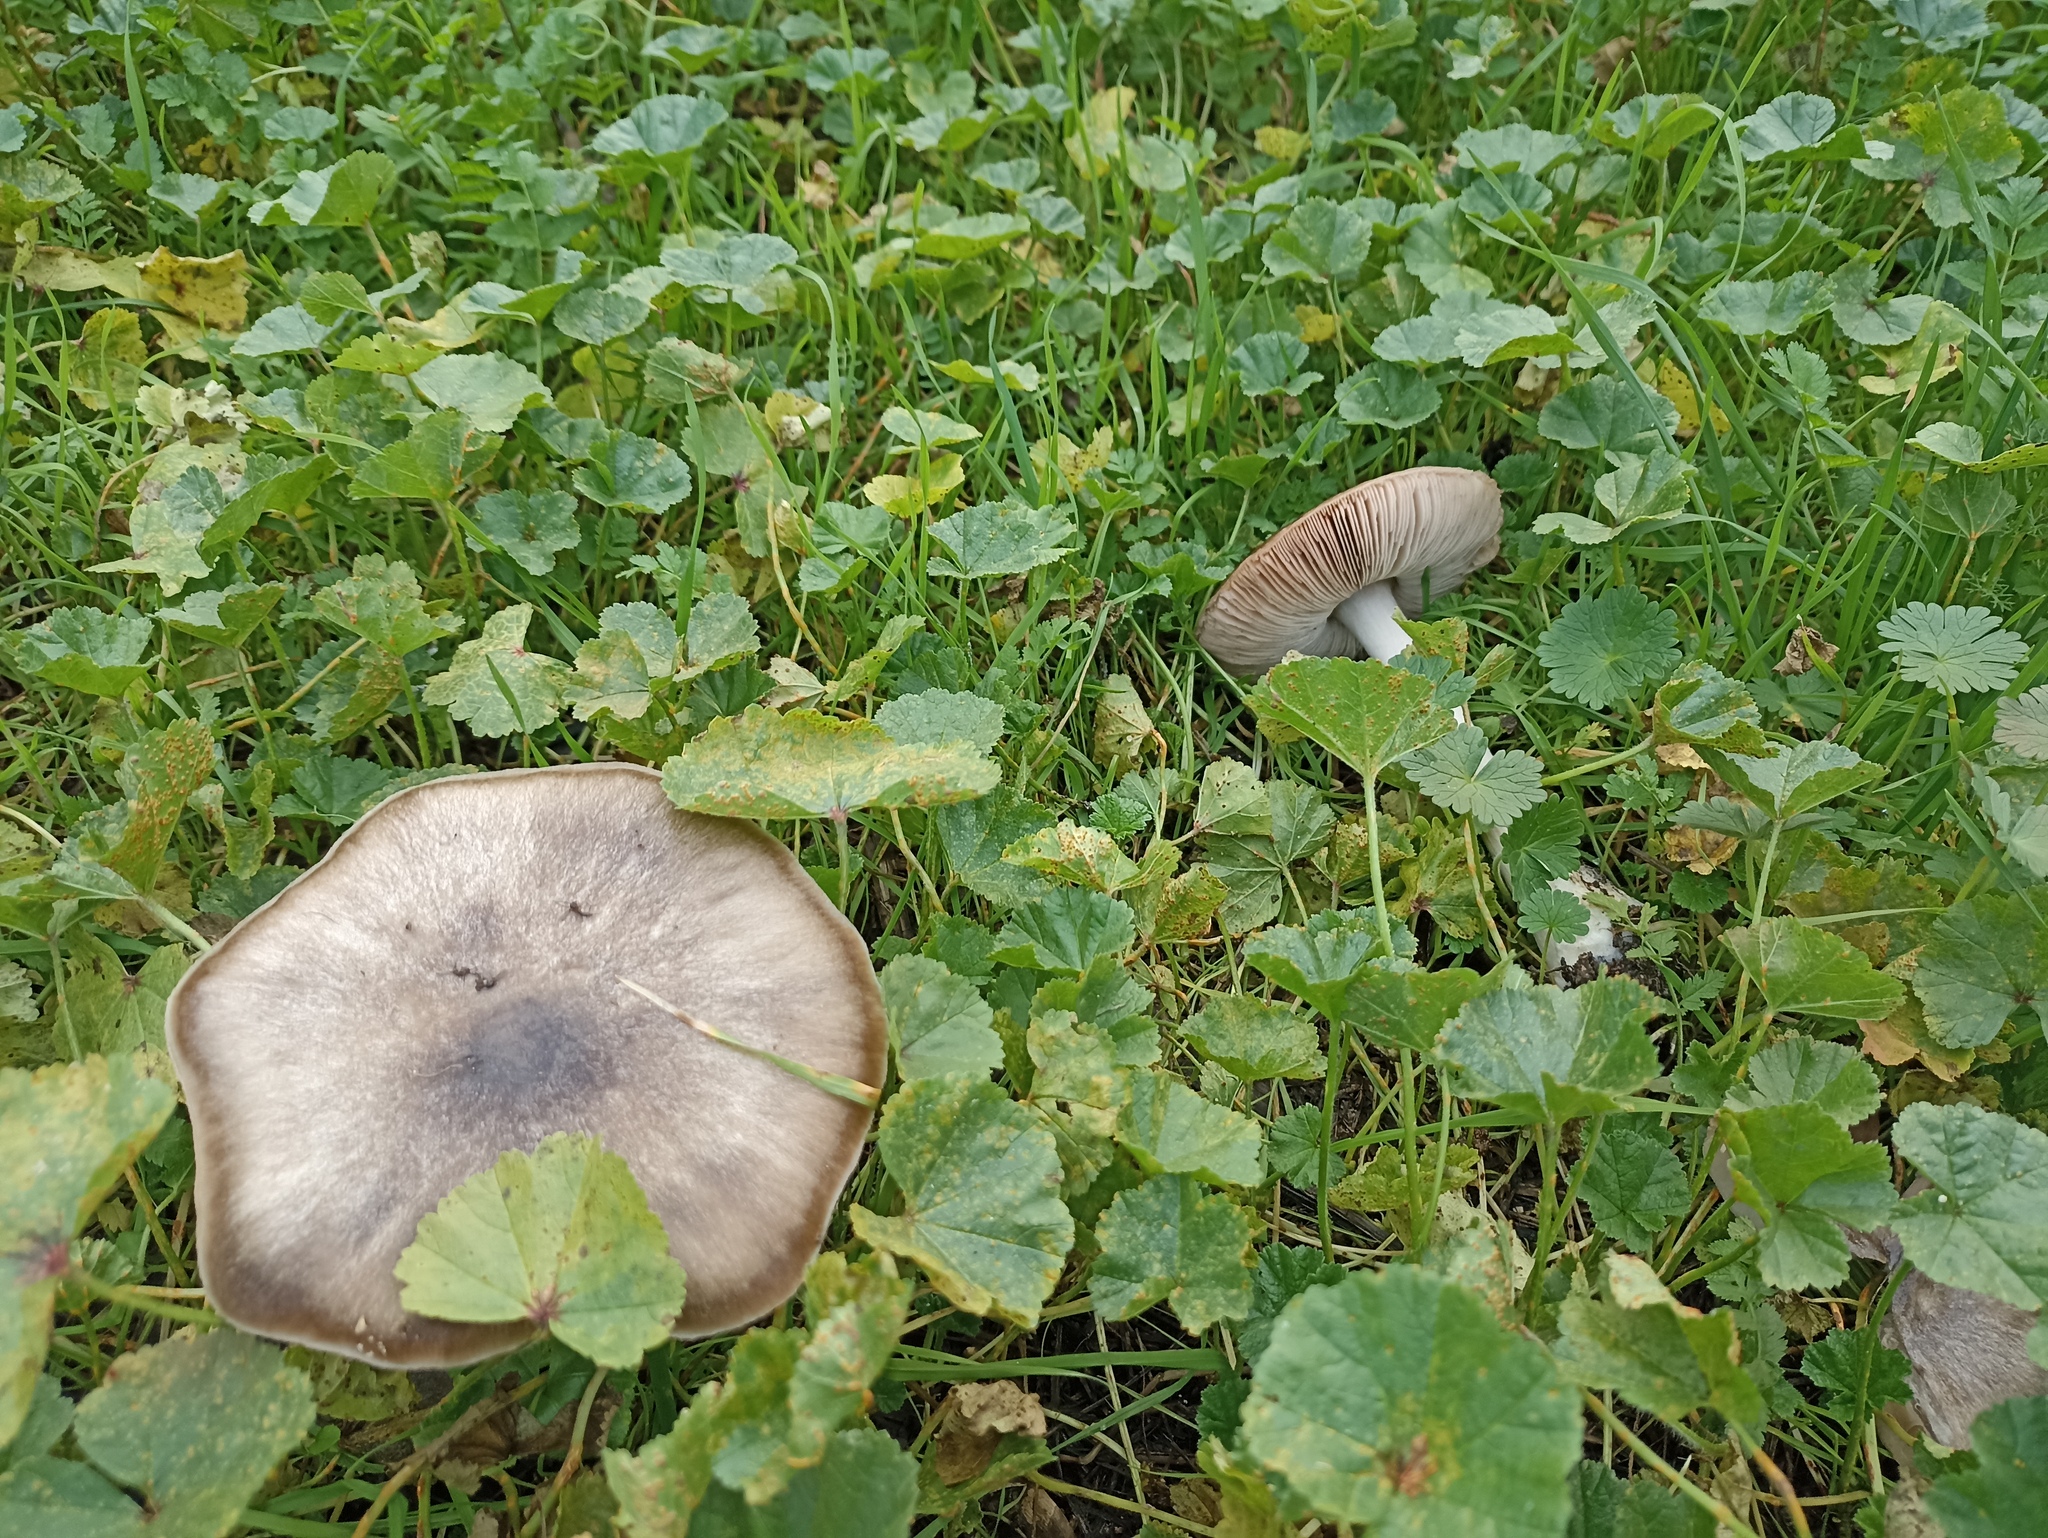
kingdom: Fungi
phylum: Basidiomycota
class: Agaricomycetes
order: Agaricales
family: Pluteaceae
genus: Volvopluteus
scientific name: Volvopluteus gloiocephalus
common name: Stubble rosegill
